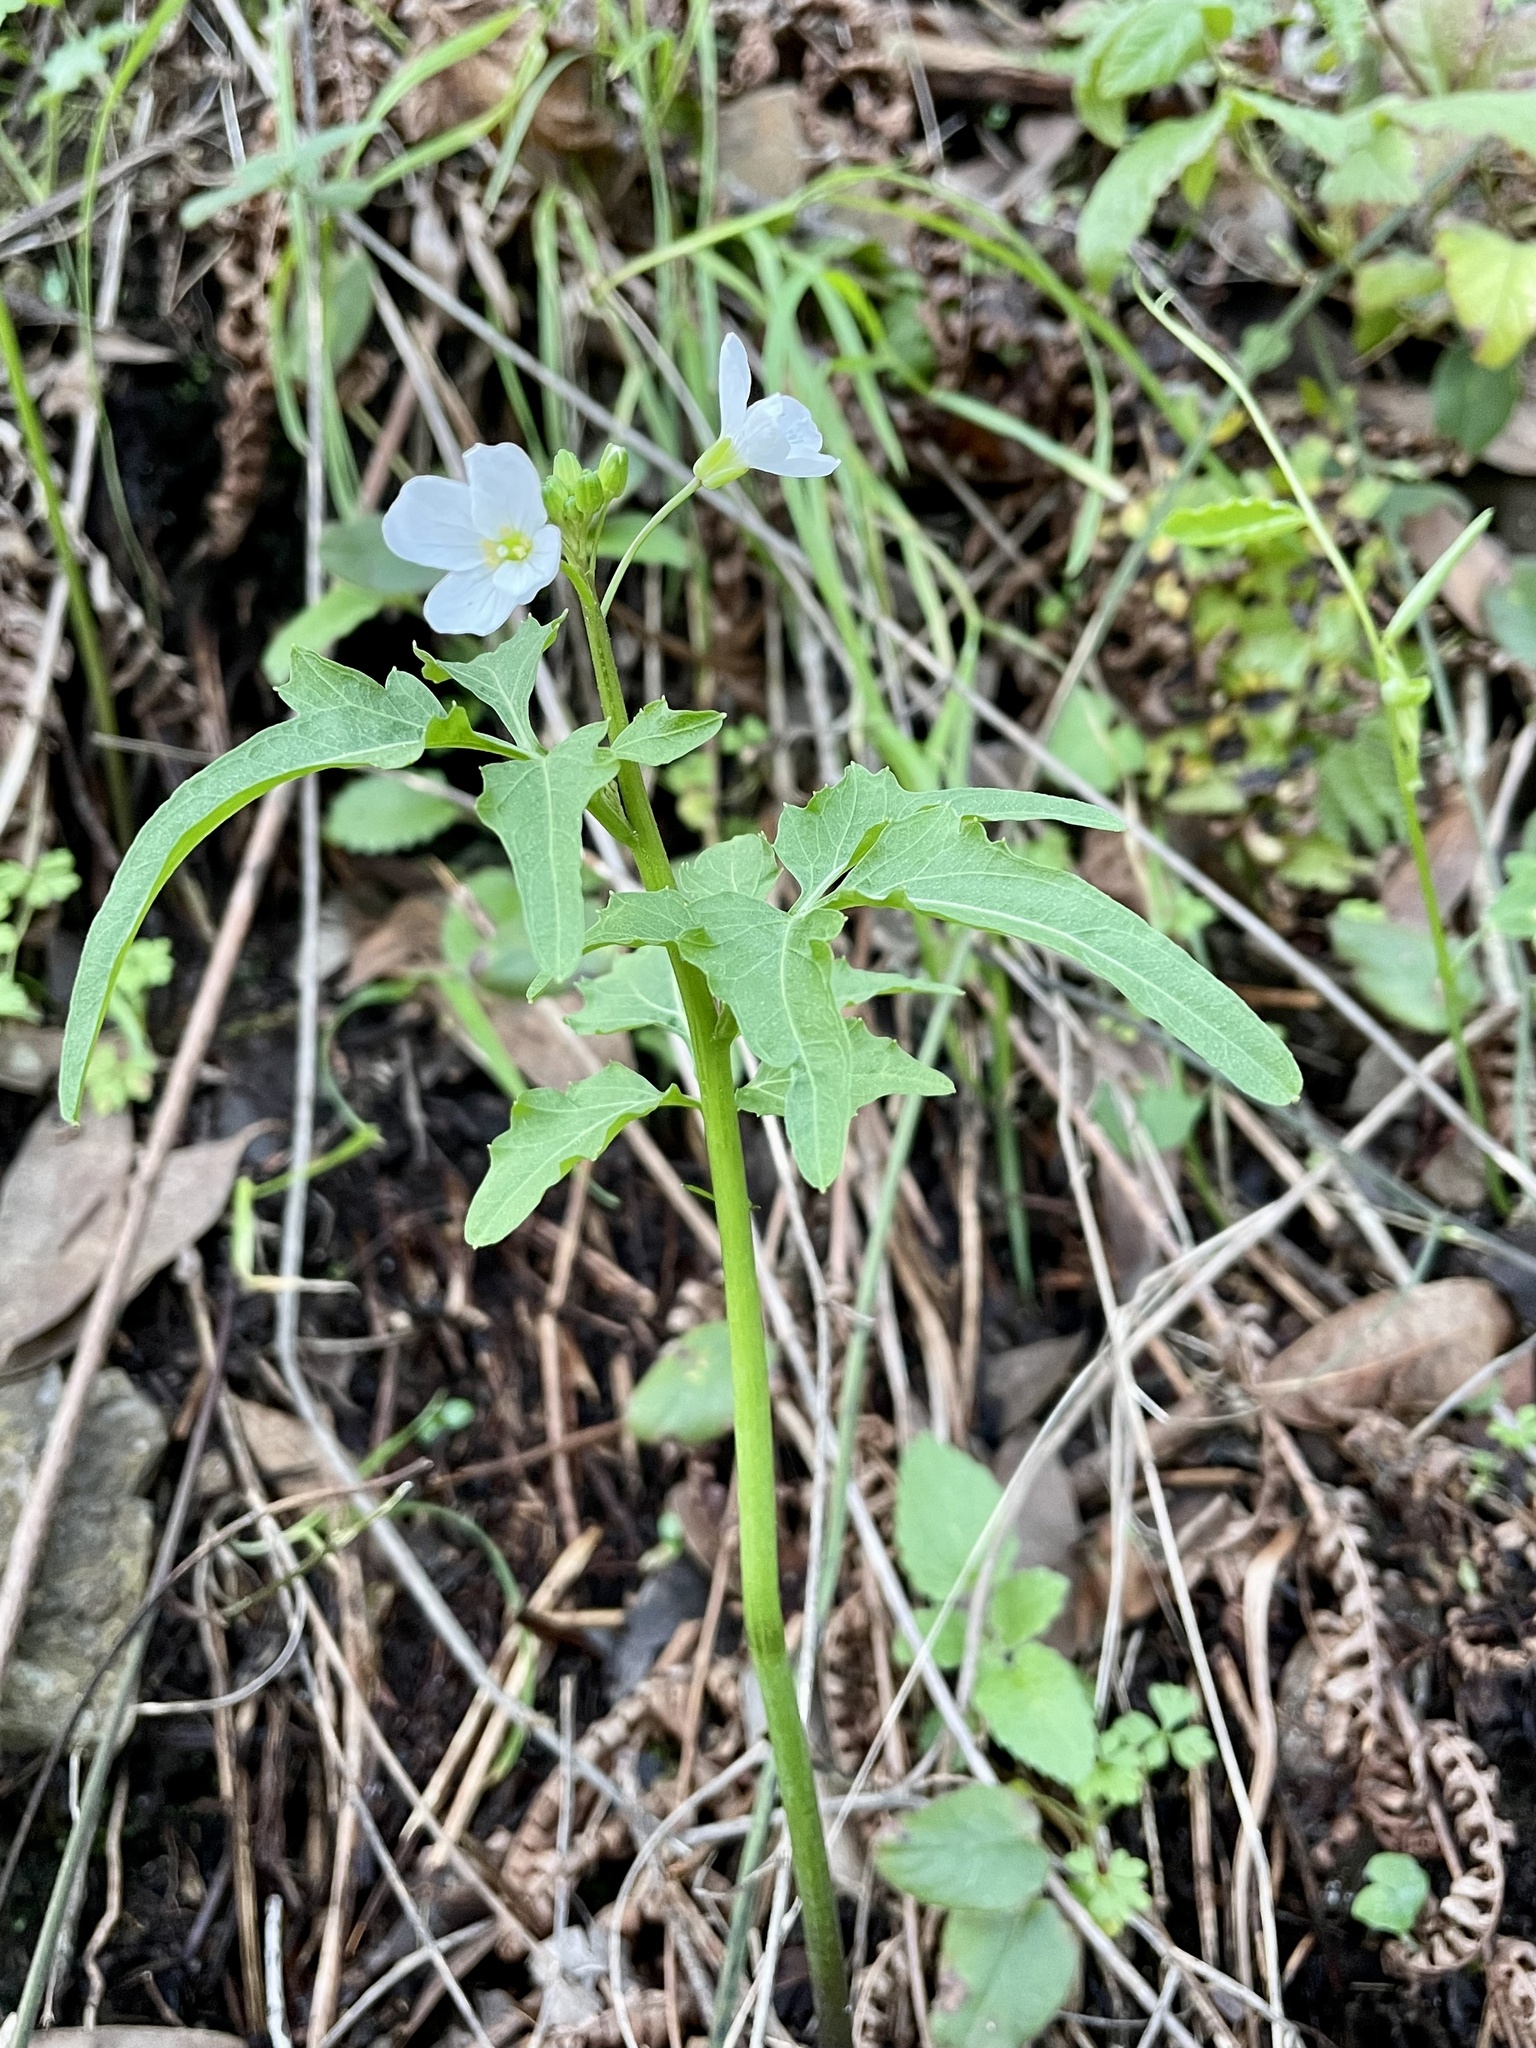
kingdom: Plantae
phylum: Tracheophyta
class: Magnoliopsida
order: Brassicales
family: Brassicaceae
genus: Cardamine
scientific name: Cardamine californica
